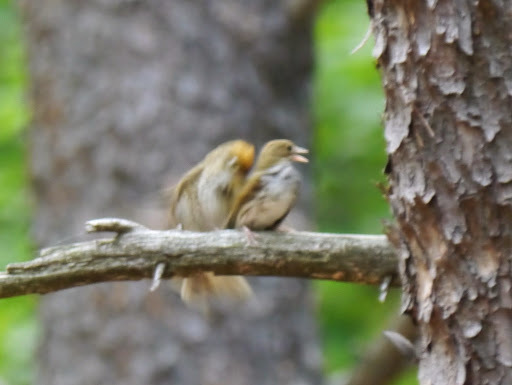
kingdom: Animalia
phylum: Chordata
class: Aves
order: Passeriformes
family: Parulidae
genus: Seiurus
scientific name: Seiurus aurocapilla
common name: Ovenbird
